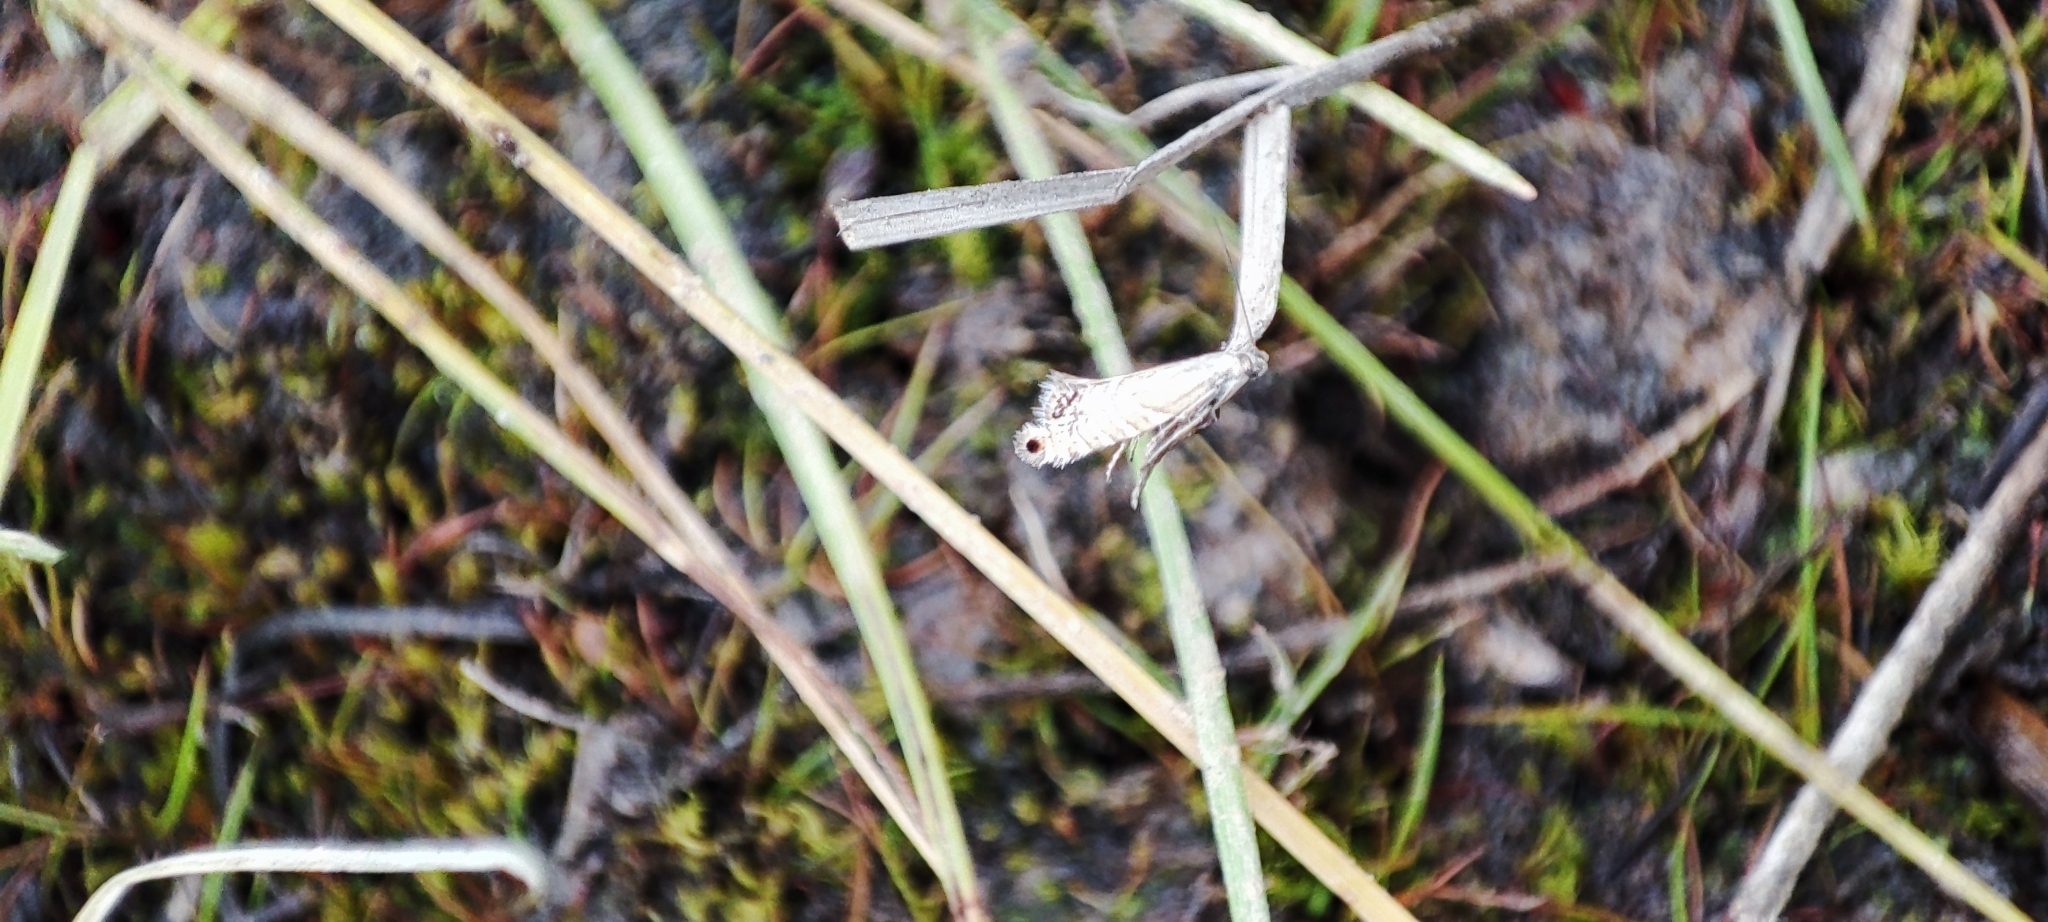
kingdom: Animalia
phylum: Arthropoda
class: Insecta
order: Lepidoptera
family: Glyphipterigidae
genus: Glyphipterix
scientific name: Glyphipterix thrasonella
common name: Speckled fanner
